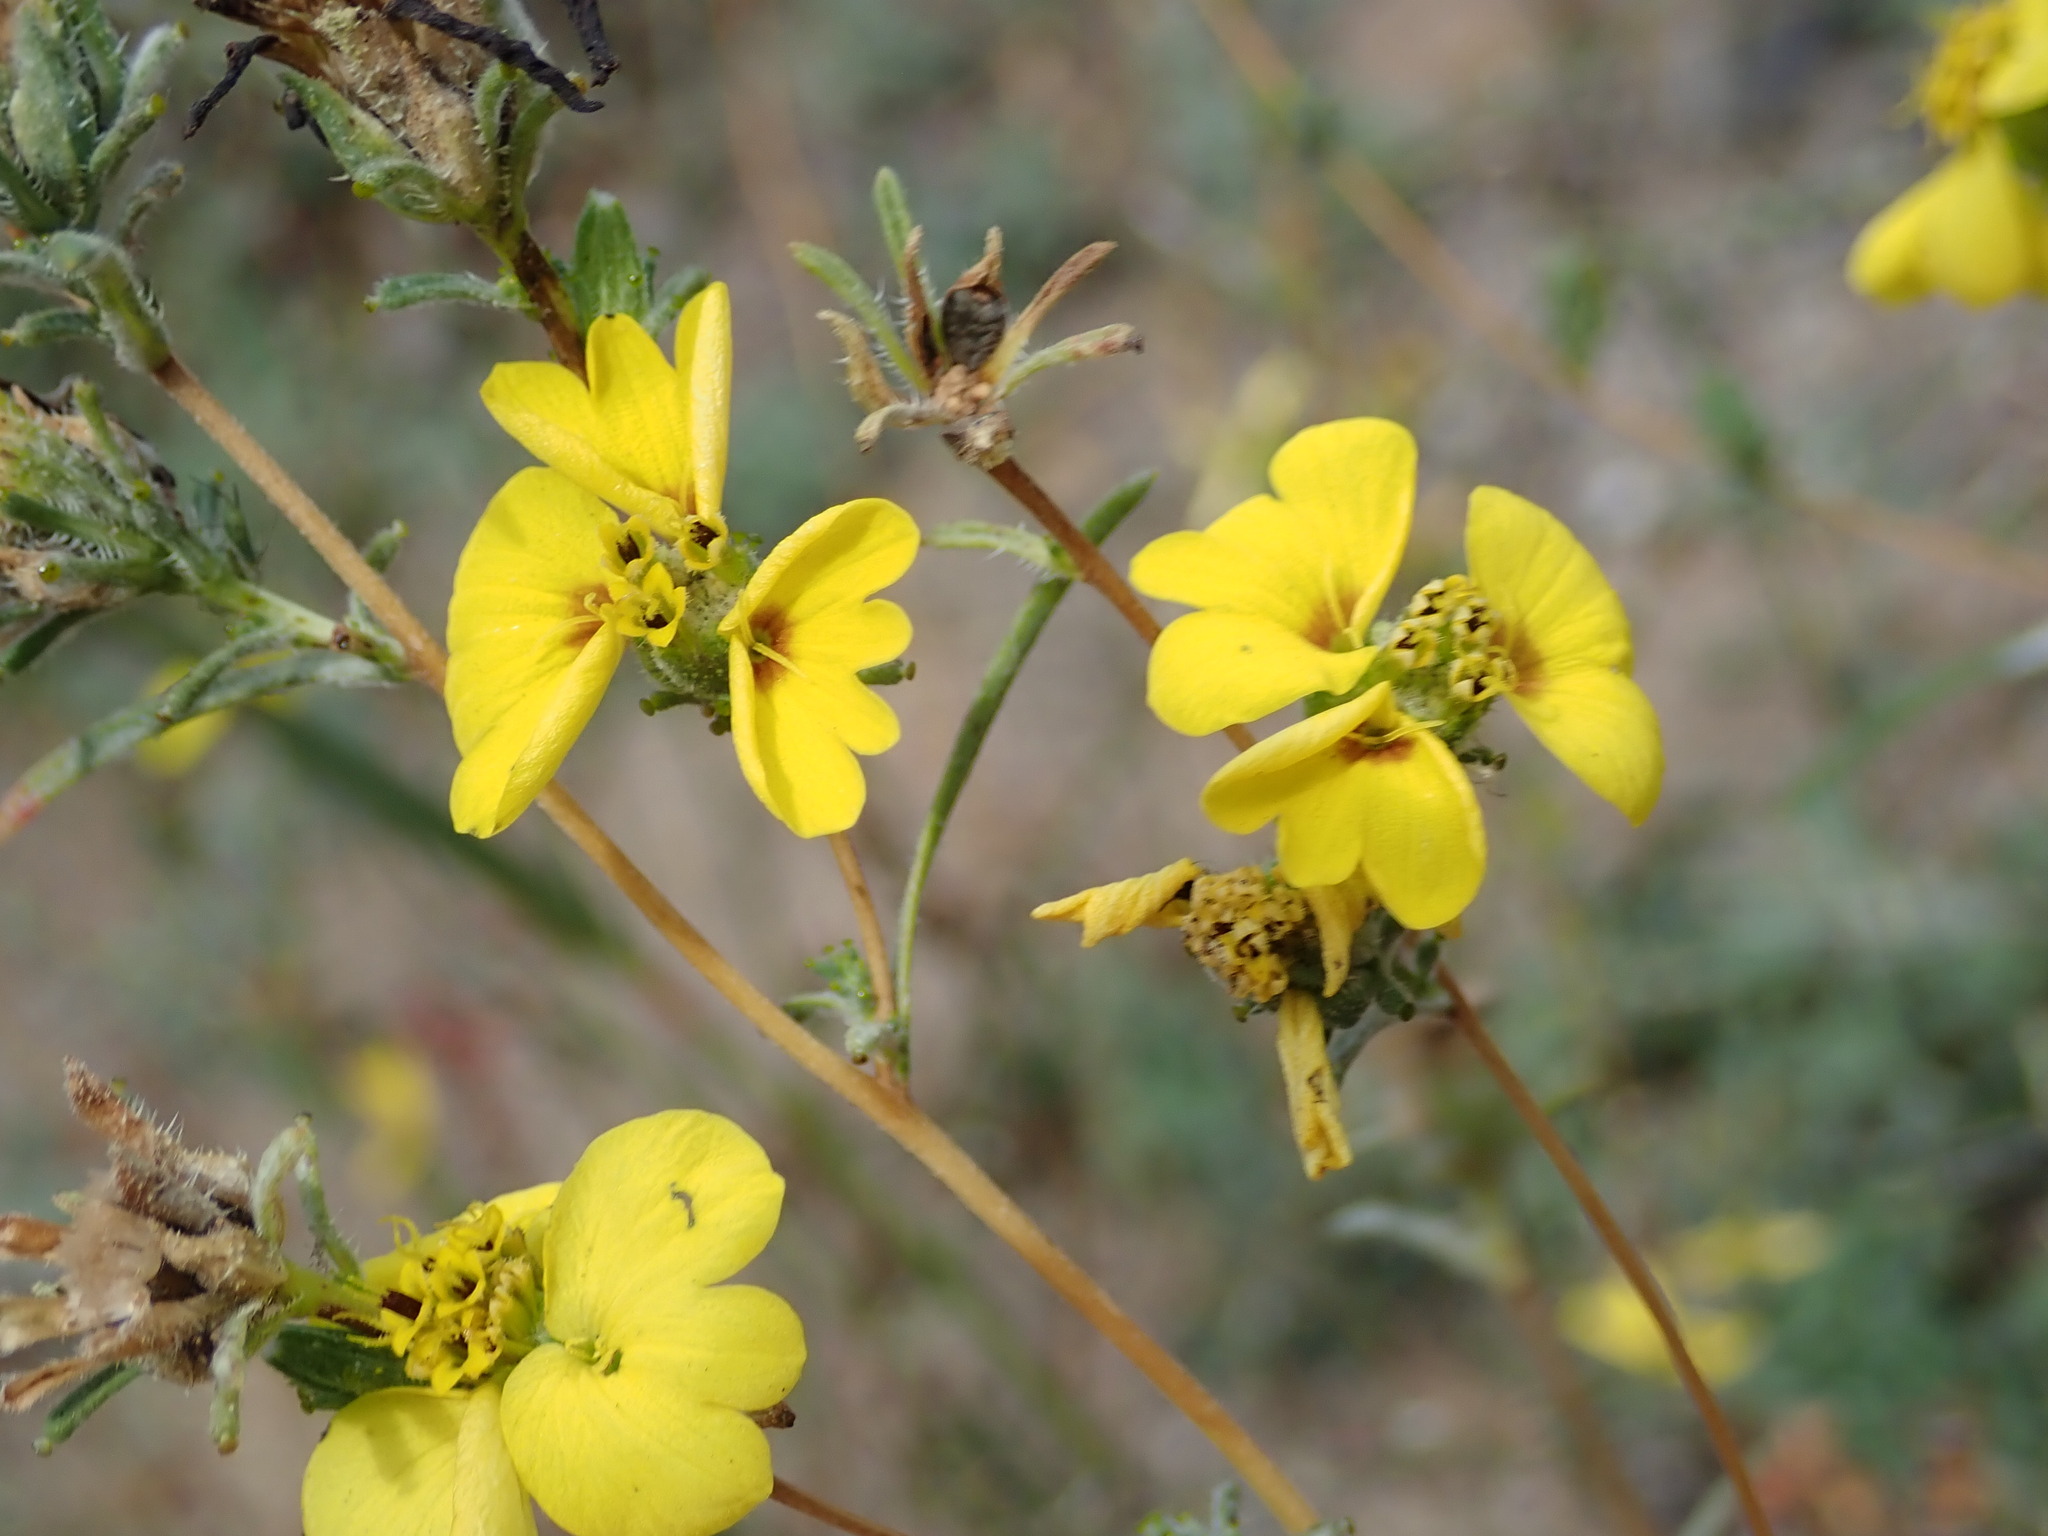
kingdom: Plantae
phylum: Tracheophyta
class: Magnoliopsida
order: Asterales
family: Asteraceae
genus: Calycadenia
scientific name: Calycadenia truncata
